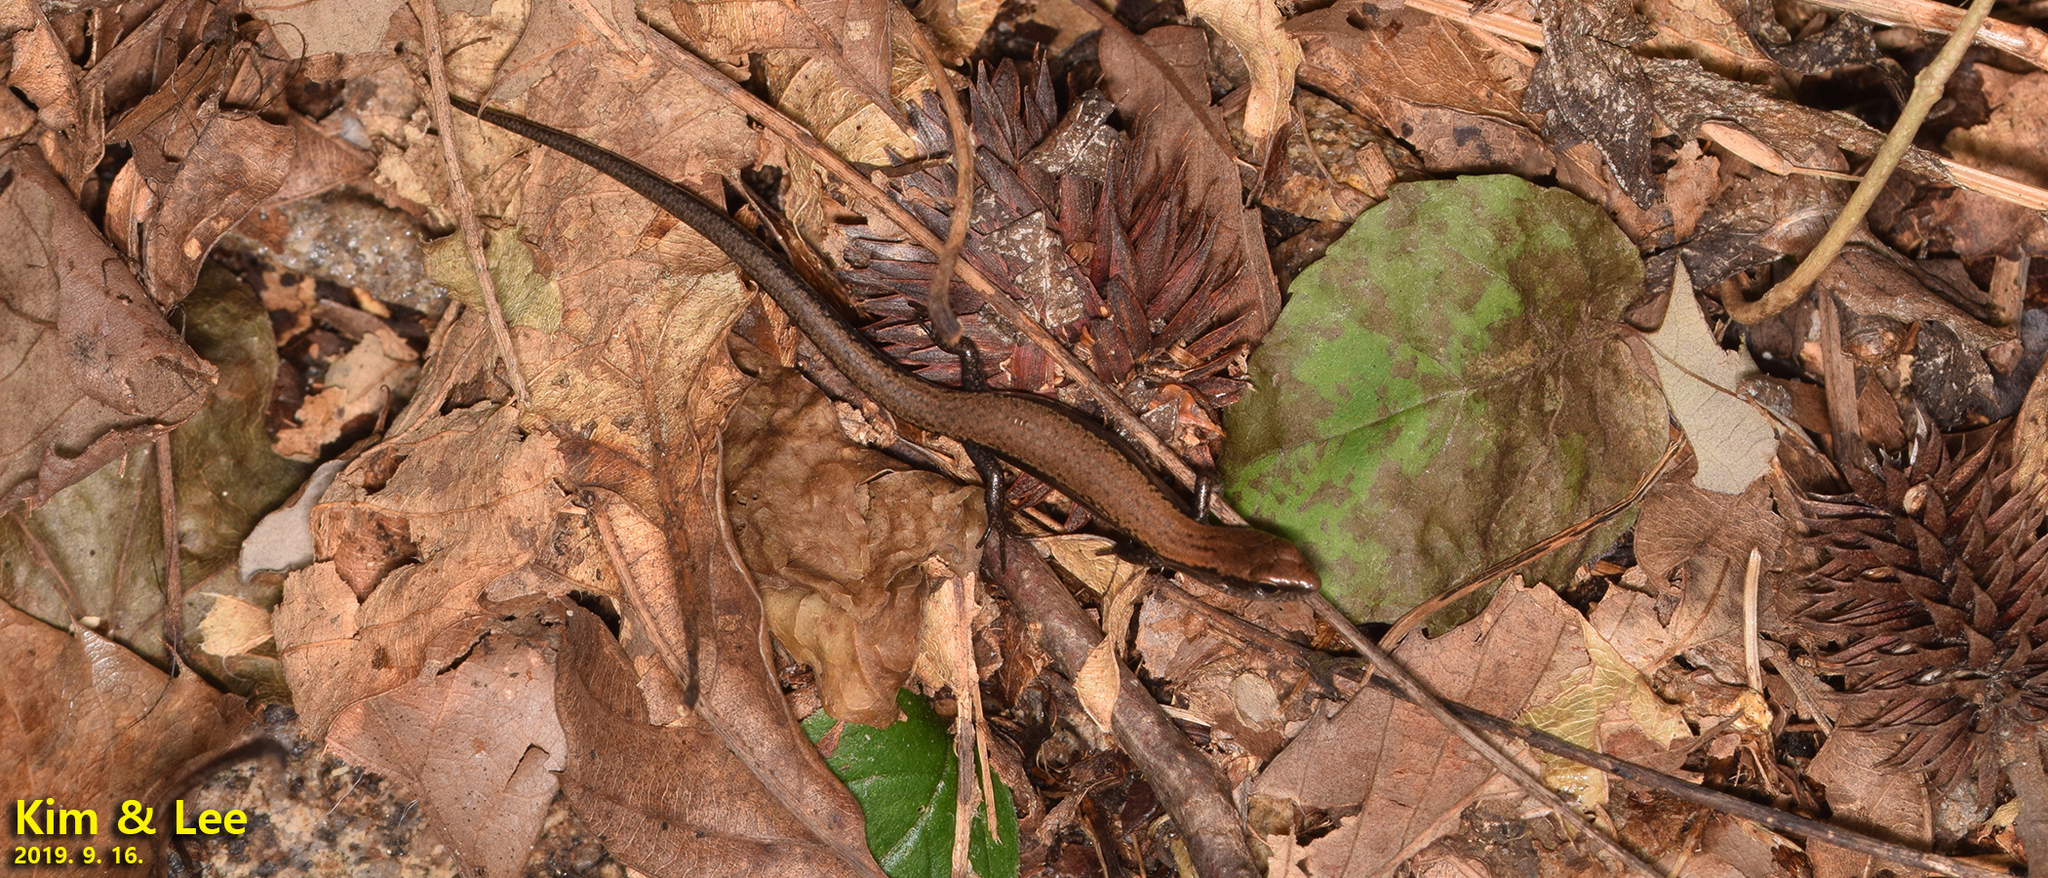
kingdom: Animalia
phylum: Chordata
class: Squamata
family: Scincidae
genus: Scincella
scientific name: Scincella vandenburghi
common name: Tsushima smooth skink
